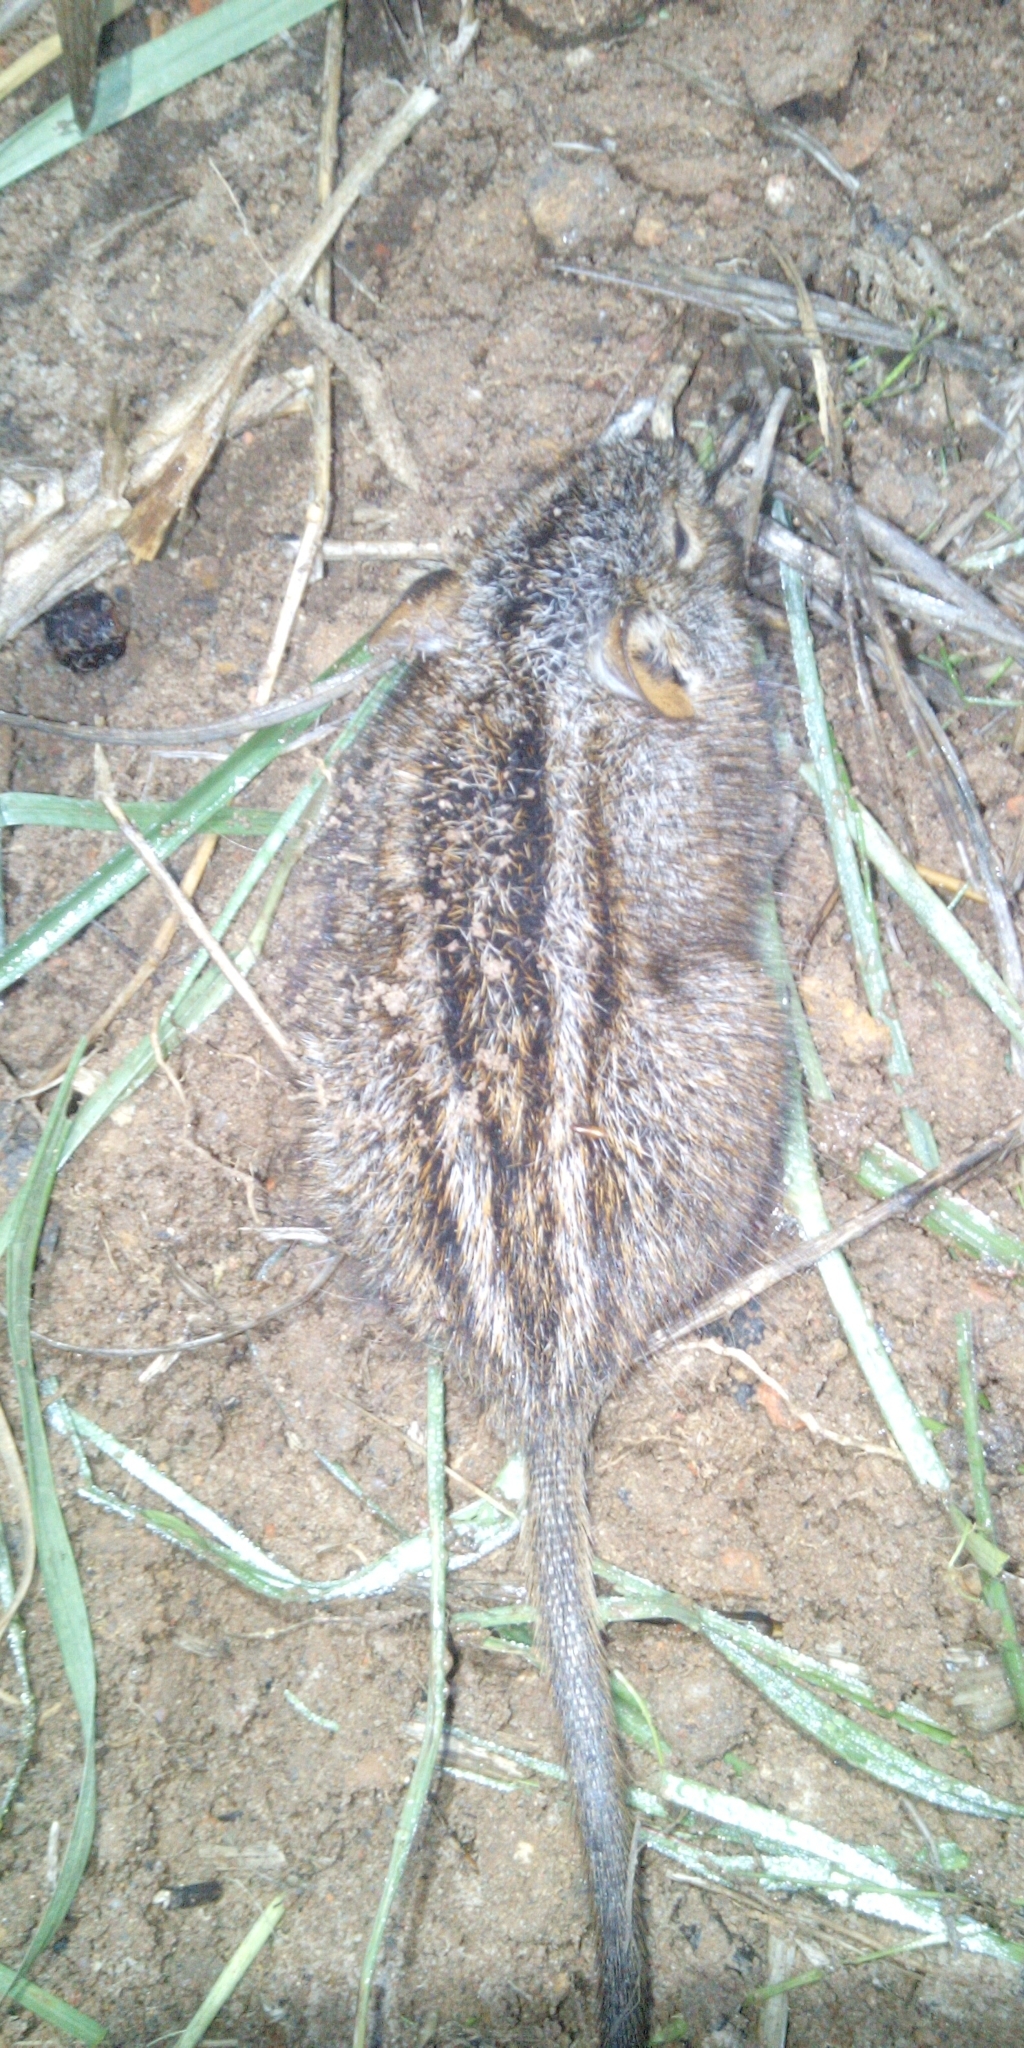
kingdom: Animalia
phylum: Chordata
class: Mammalia
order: Rodentia
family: Muridae
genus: Rhabdomys
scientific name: Rhabdomys pumilio
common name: Xeric four-striped grass rat
